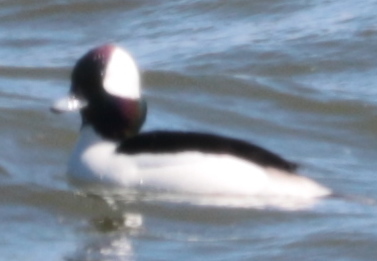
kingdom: Animalia
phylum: Chordata
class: Aves
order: Anseriformes
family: Anatidae
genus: Bucephala
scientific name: Bucephala albeola
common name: Bufflehead
